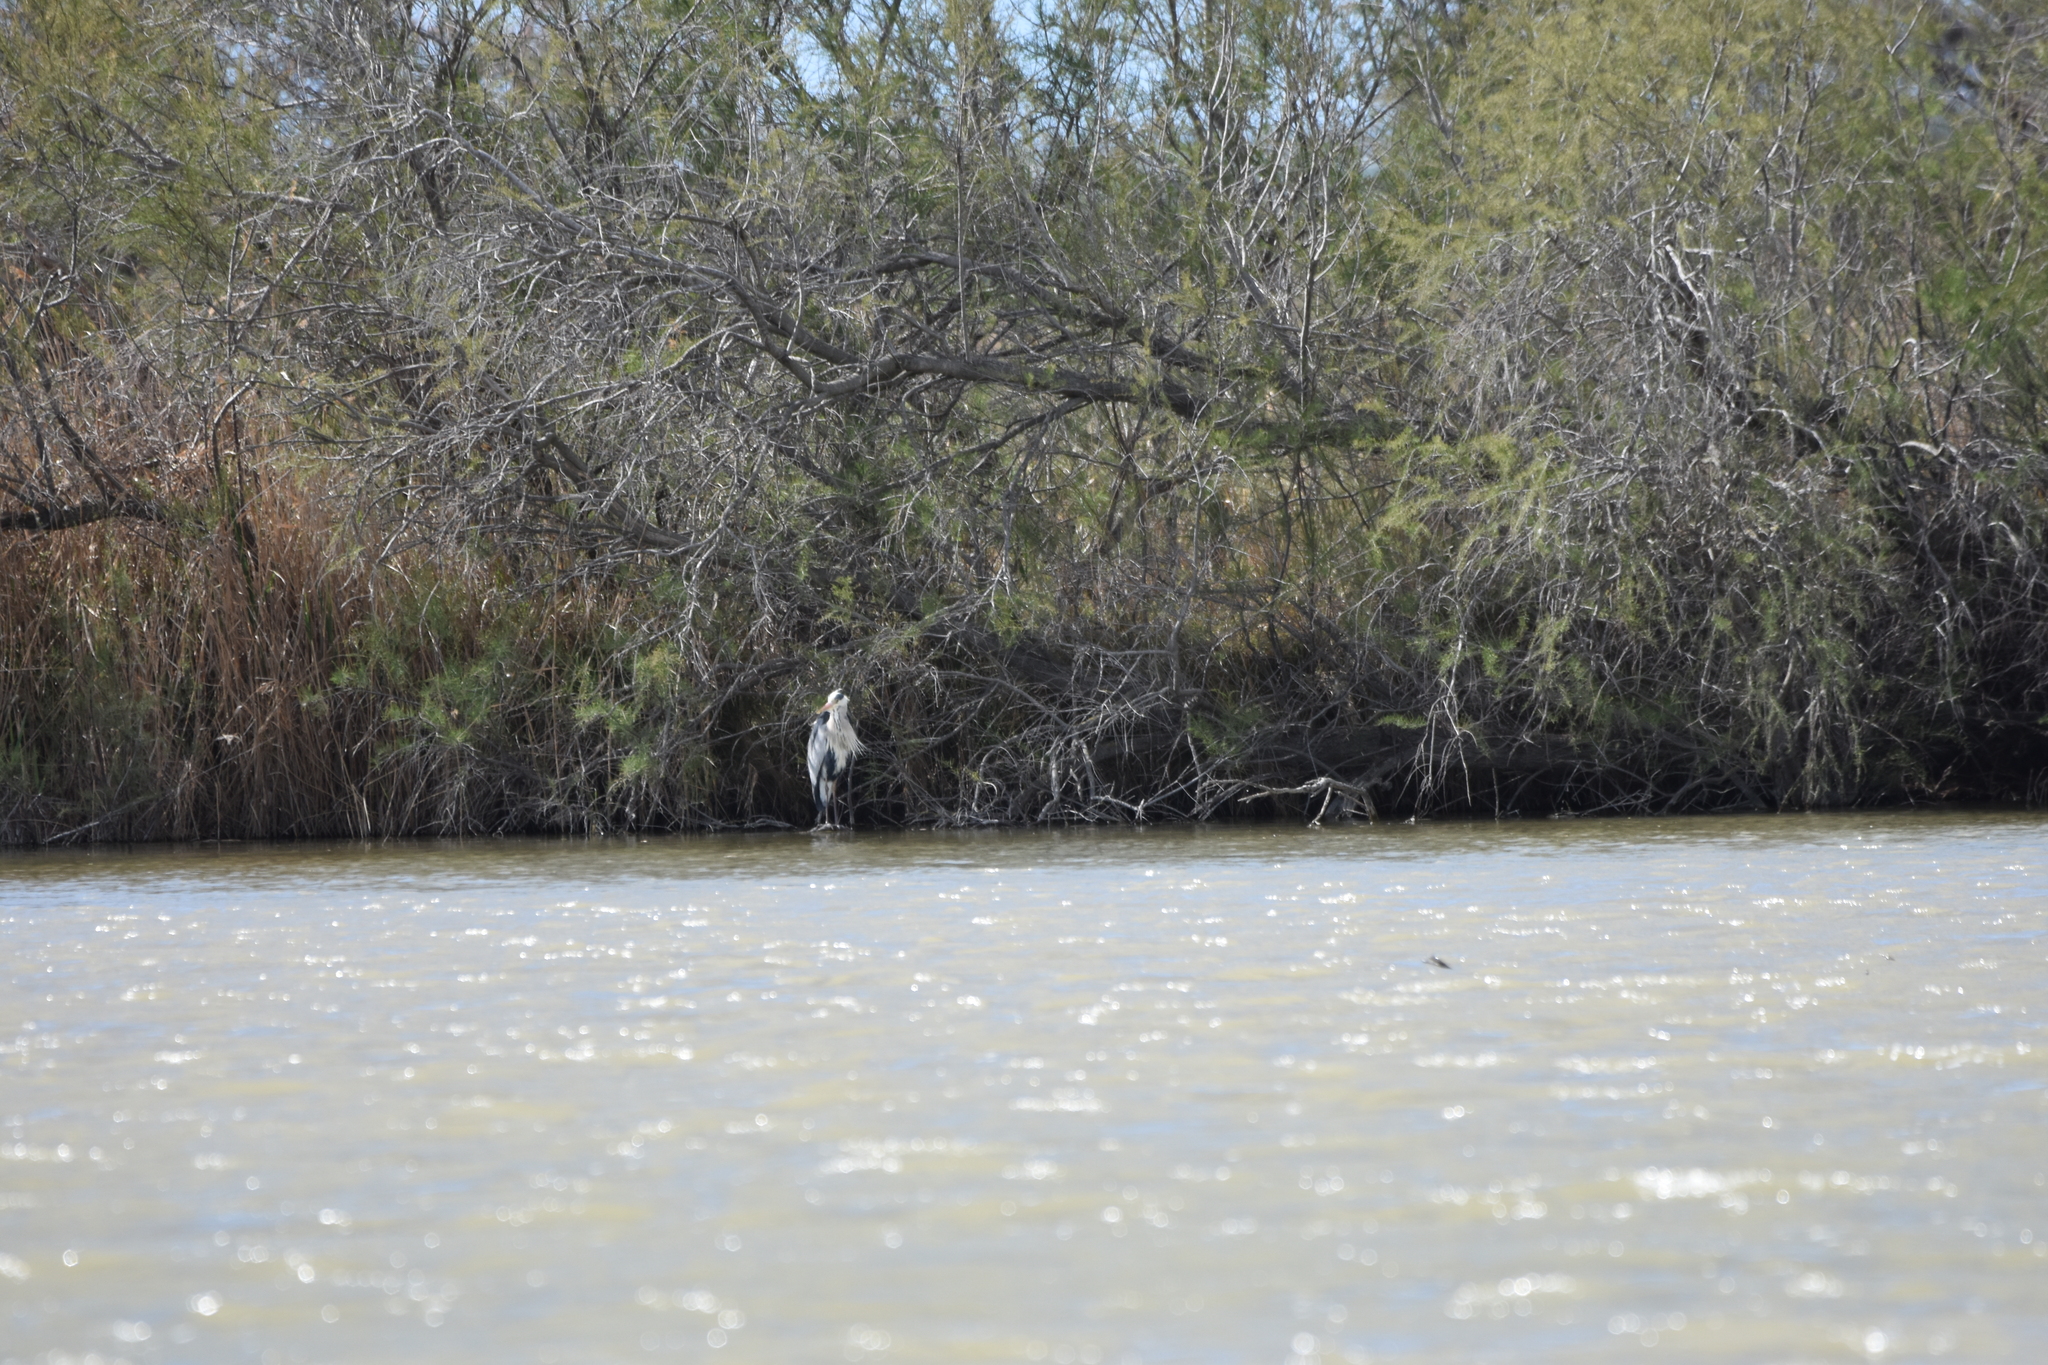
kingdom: Animalia
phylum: Chordata
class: Aves
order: Pelecaniformes
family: Ardeidae
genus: Ardea
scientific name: Ardea cinerea
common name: Grey heron
